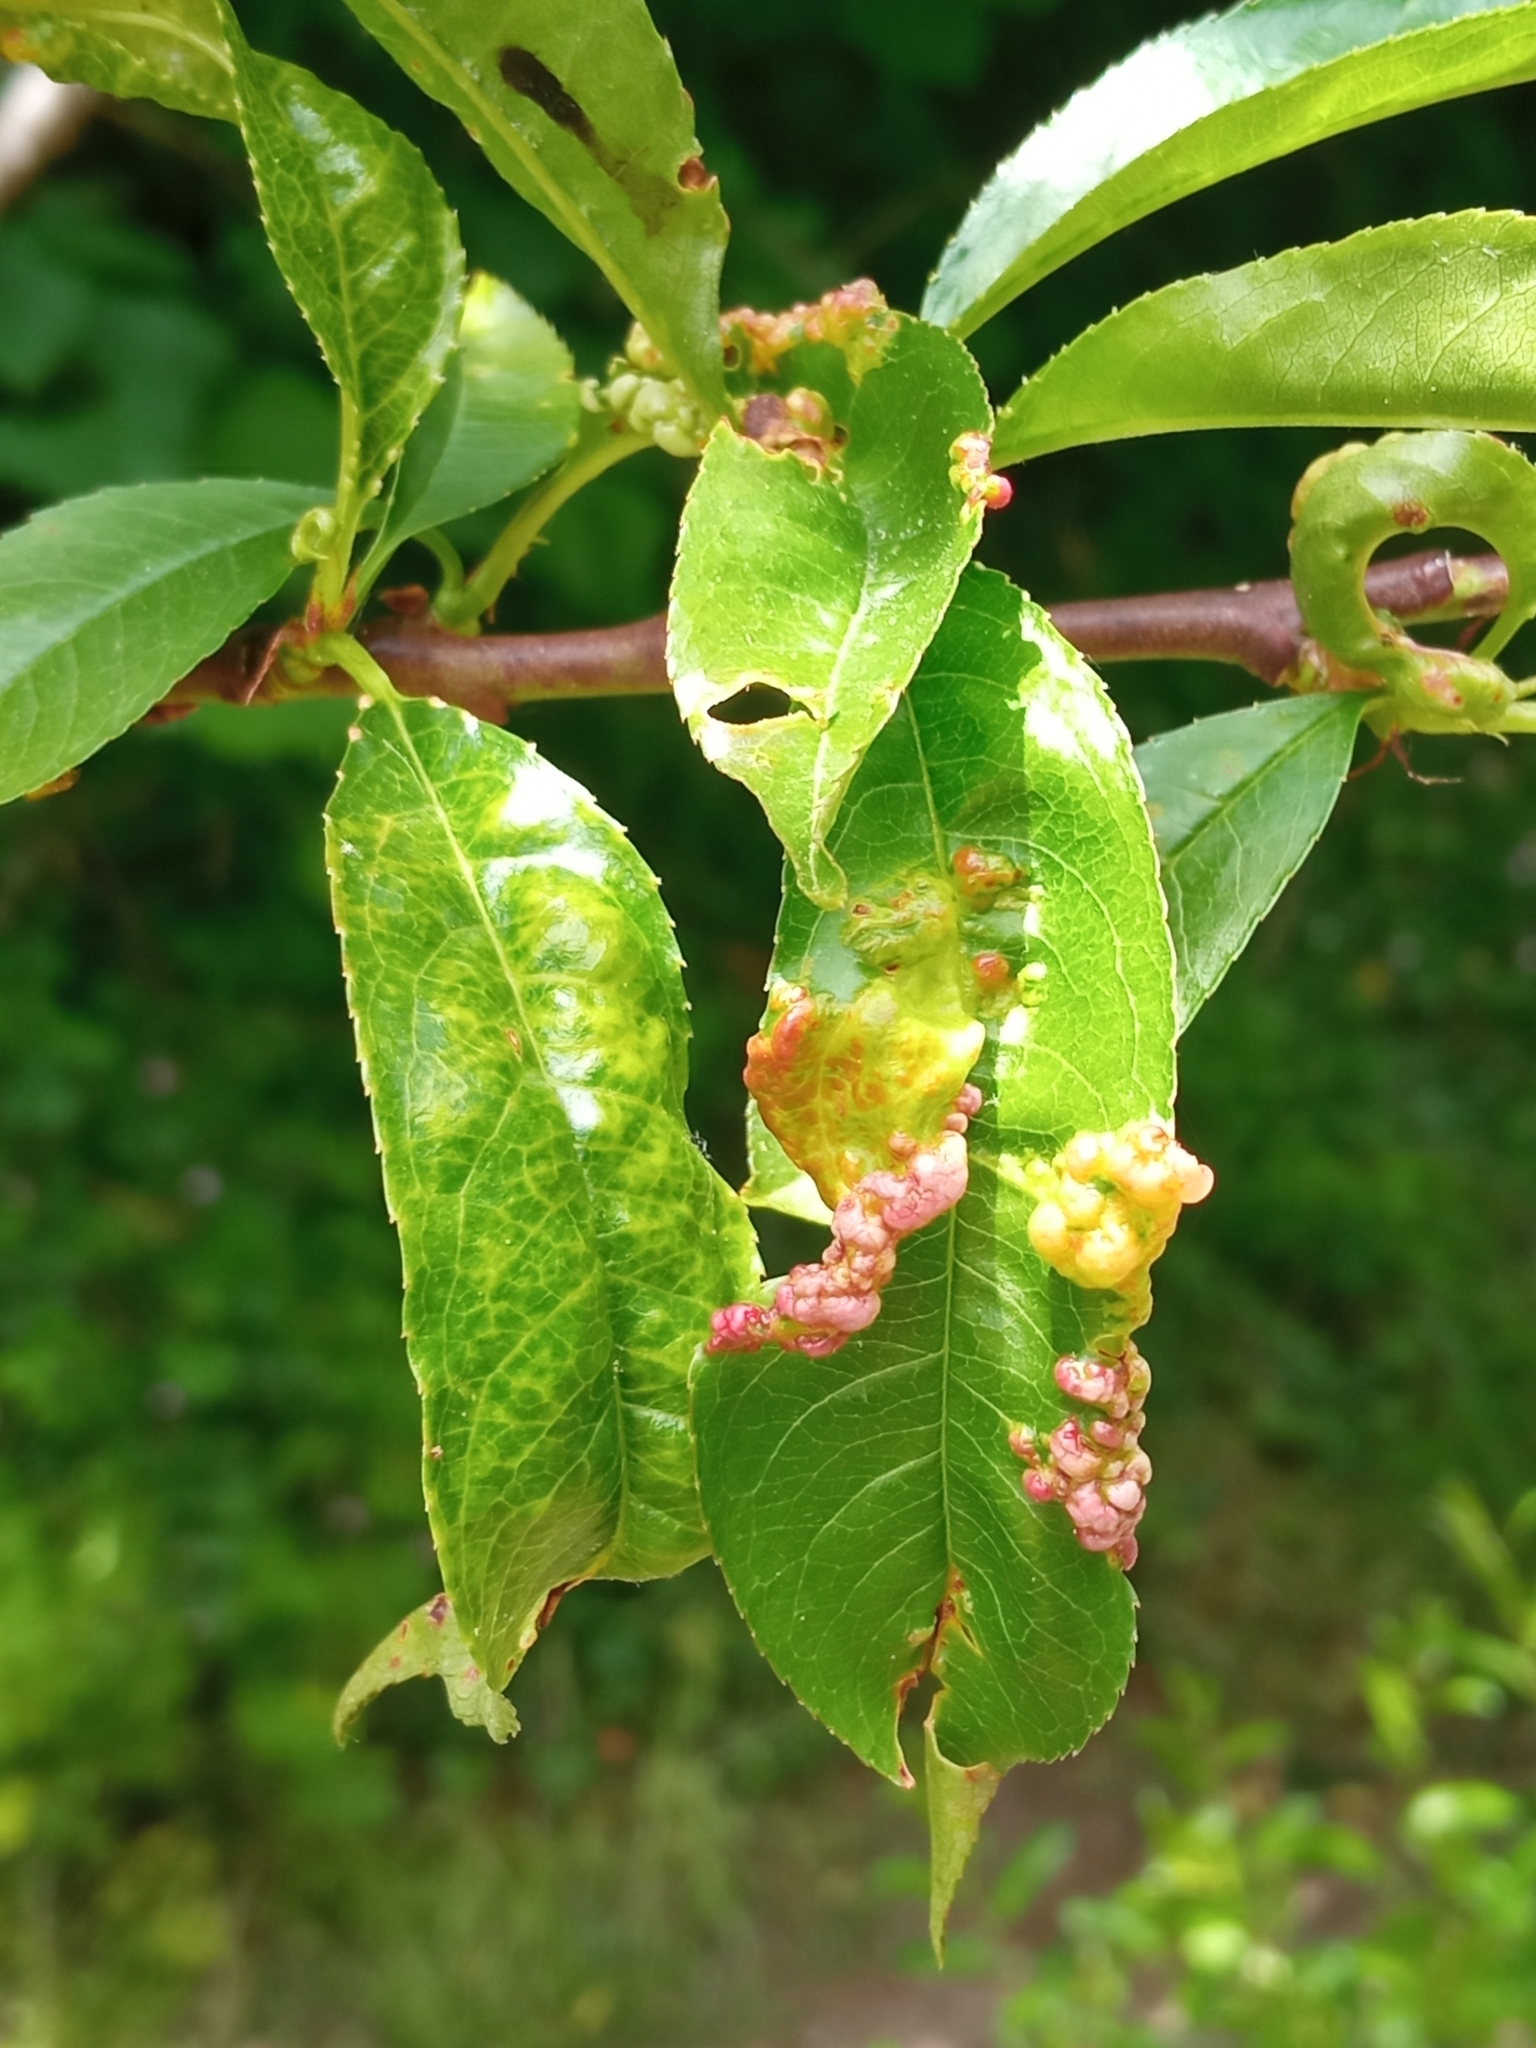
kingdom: Fungi
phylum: Ascomycota
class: Taphrinomycetes
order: Taphrinales
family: Taphrinaceae
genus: Taphrina
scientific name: Taphrina deformans
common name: Peach leaf curl
